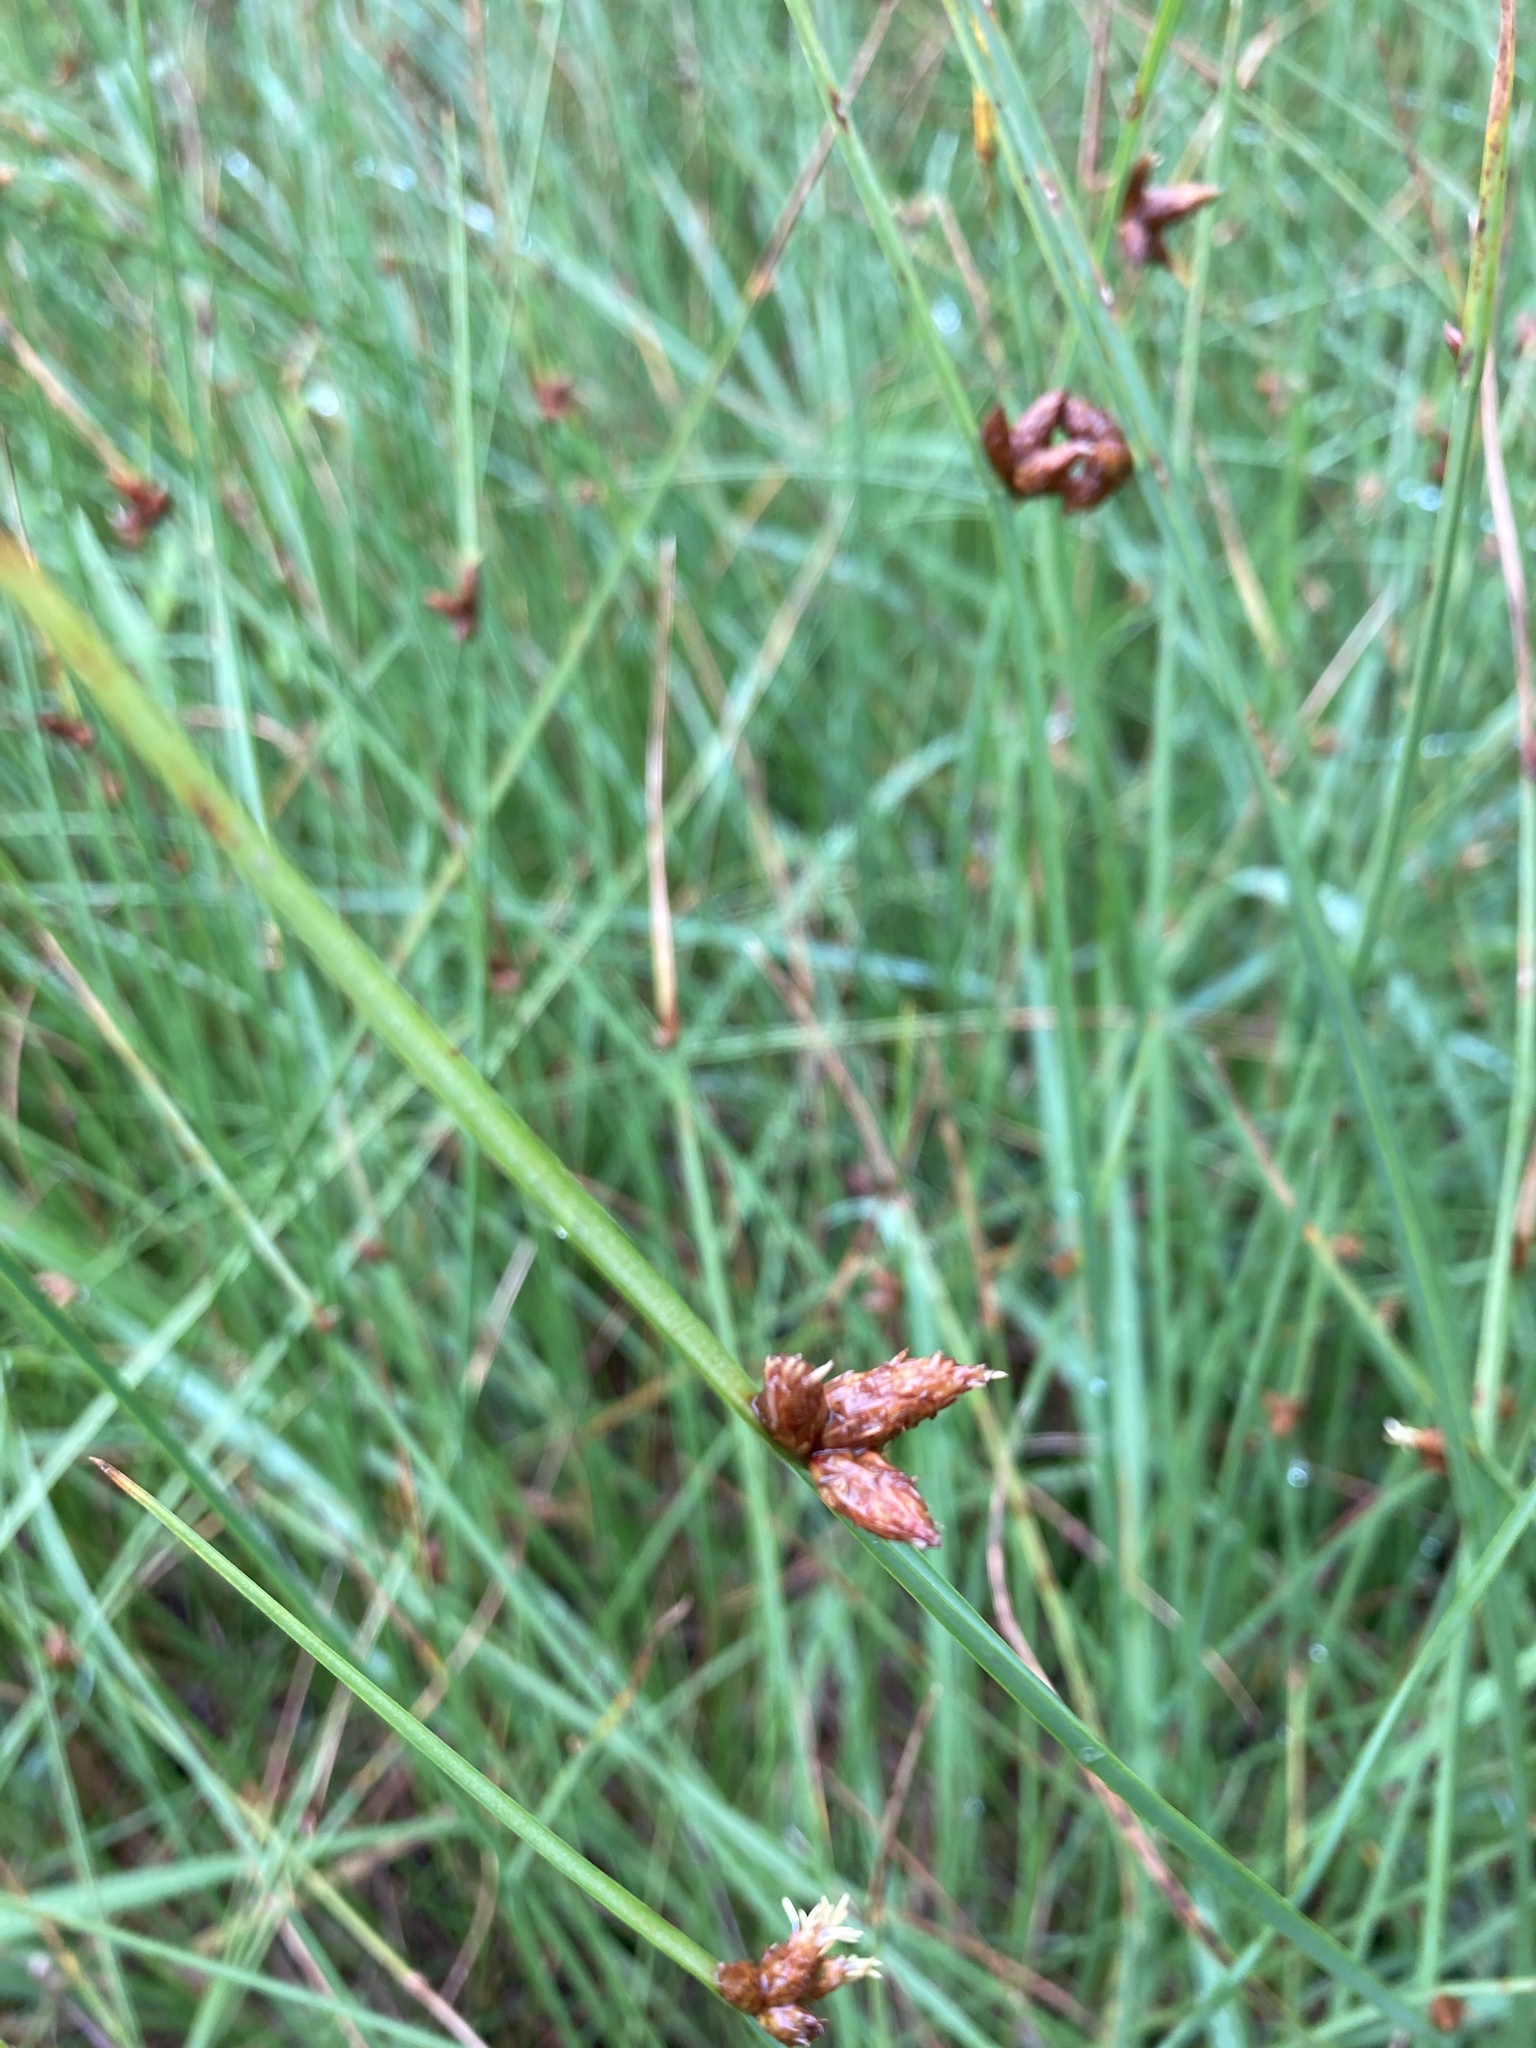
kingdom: Plantae
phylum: Tracheophyta
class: Liliopsida
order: Poales
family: Cyperaceae
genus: Schoenoplectus
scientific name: Schoenoplectus pungens
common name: Sharp club-rush
